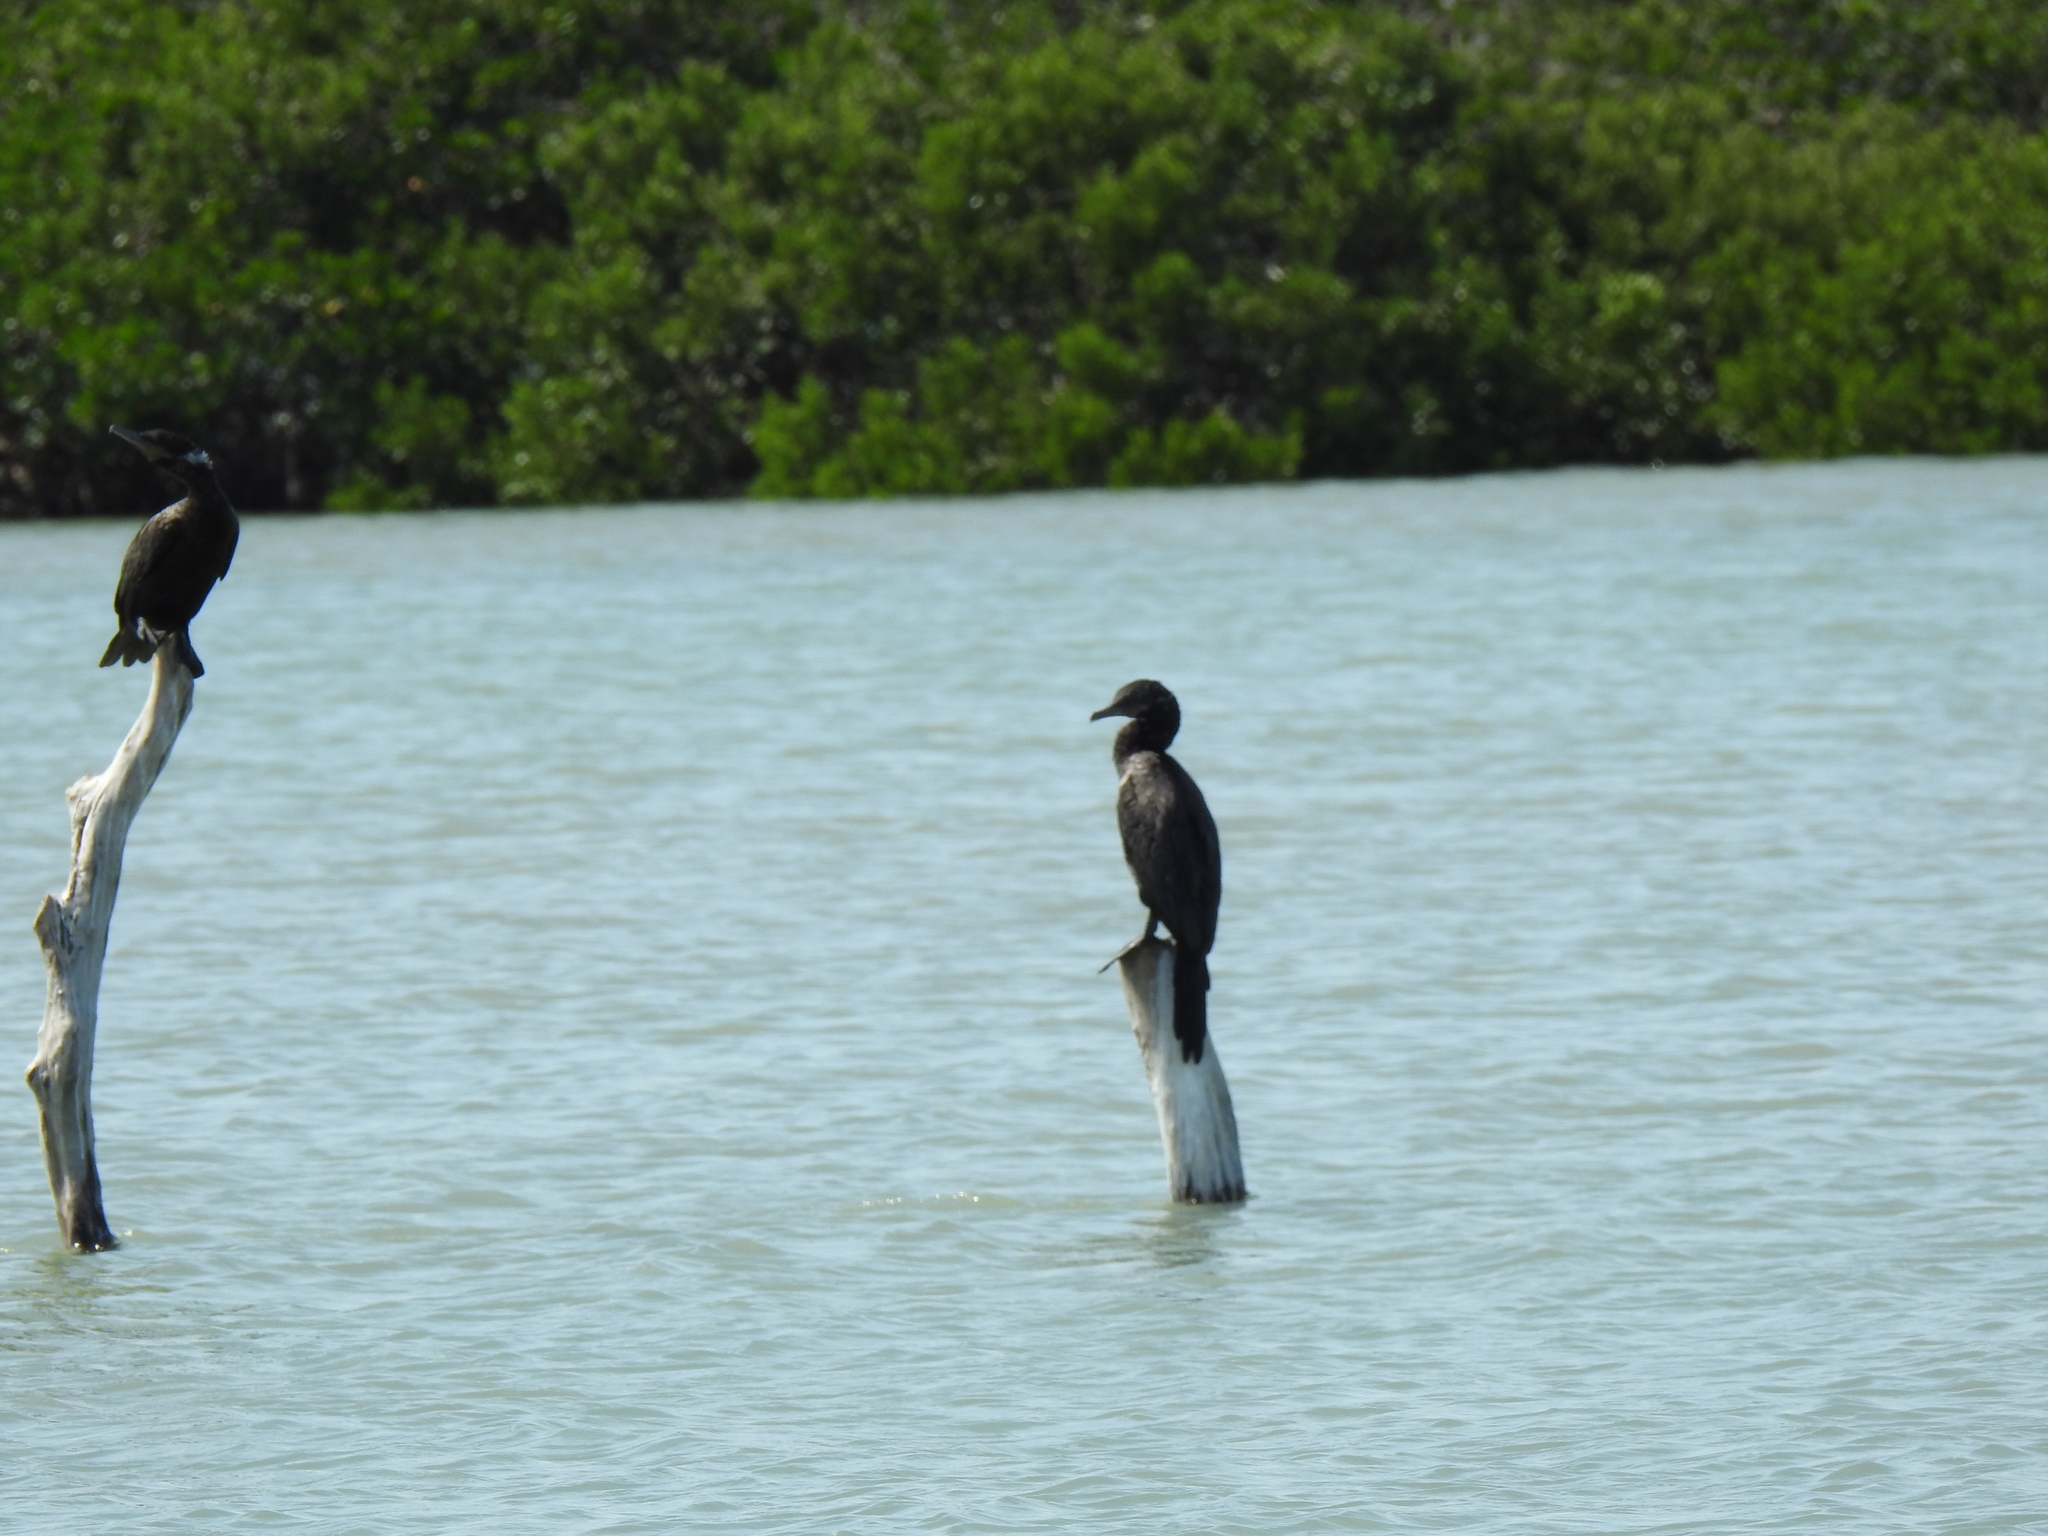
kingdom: Animalia
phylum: Chordata
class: Aves
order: Suliformes
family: Phalacrocoracidae
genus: Phalacrocorax
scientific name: Phalacrocorax brasilianus
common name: Neotropic cormorant
